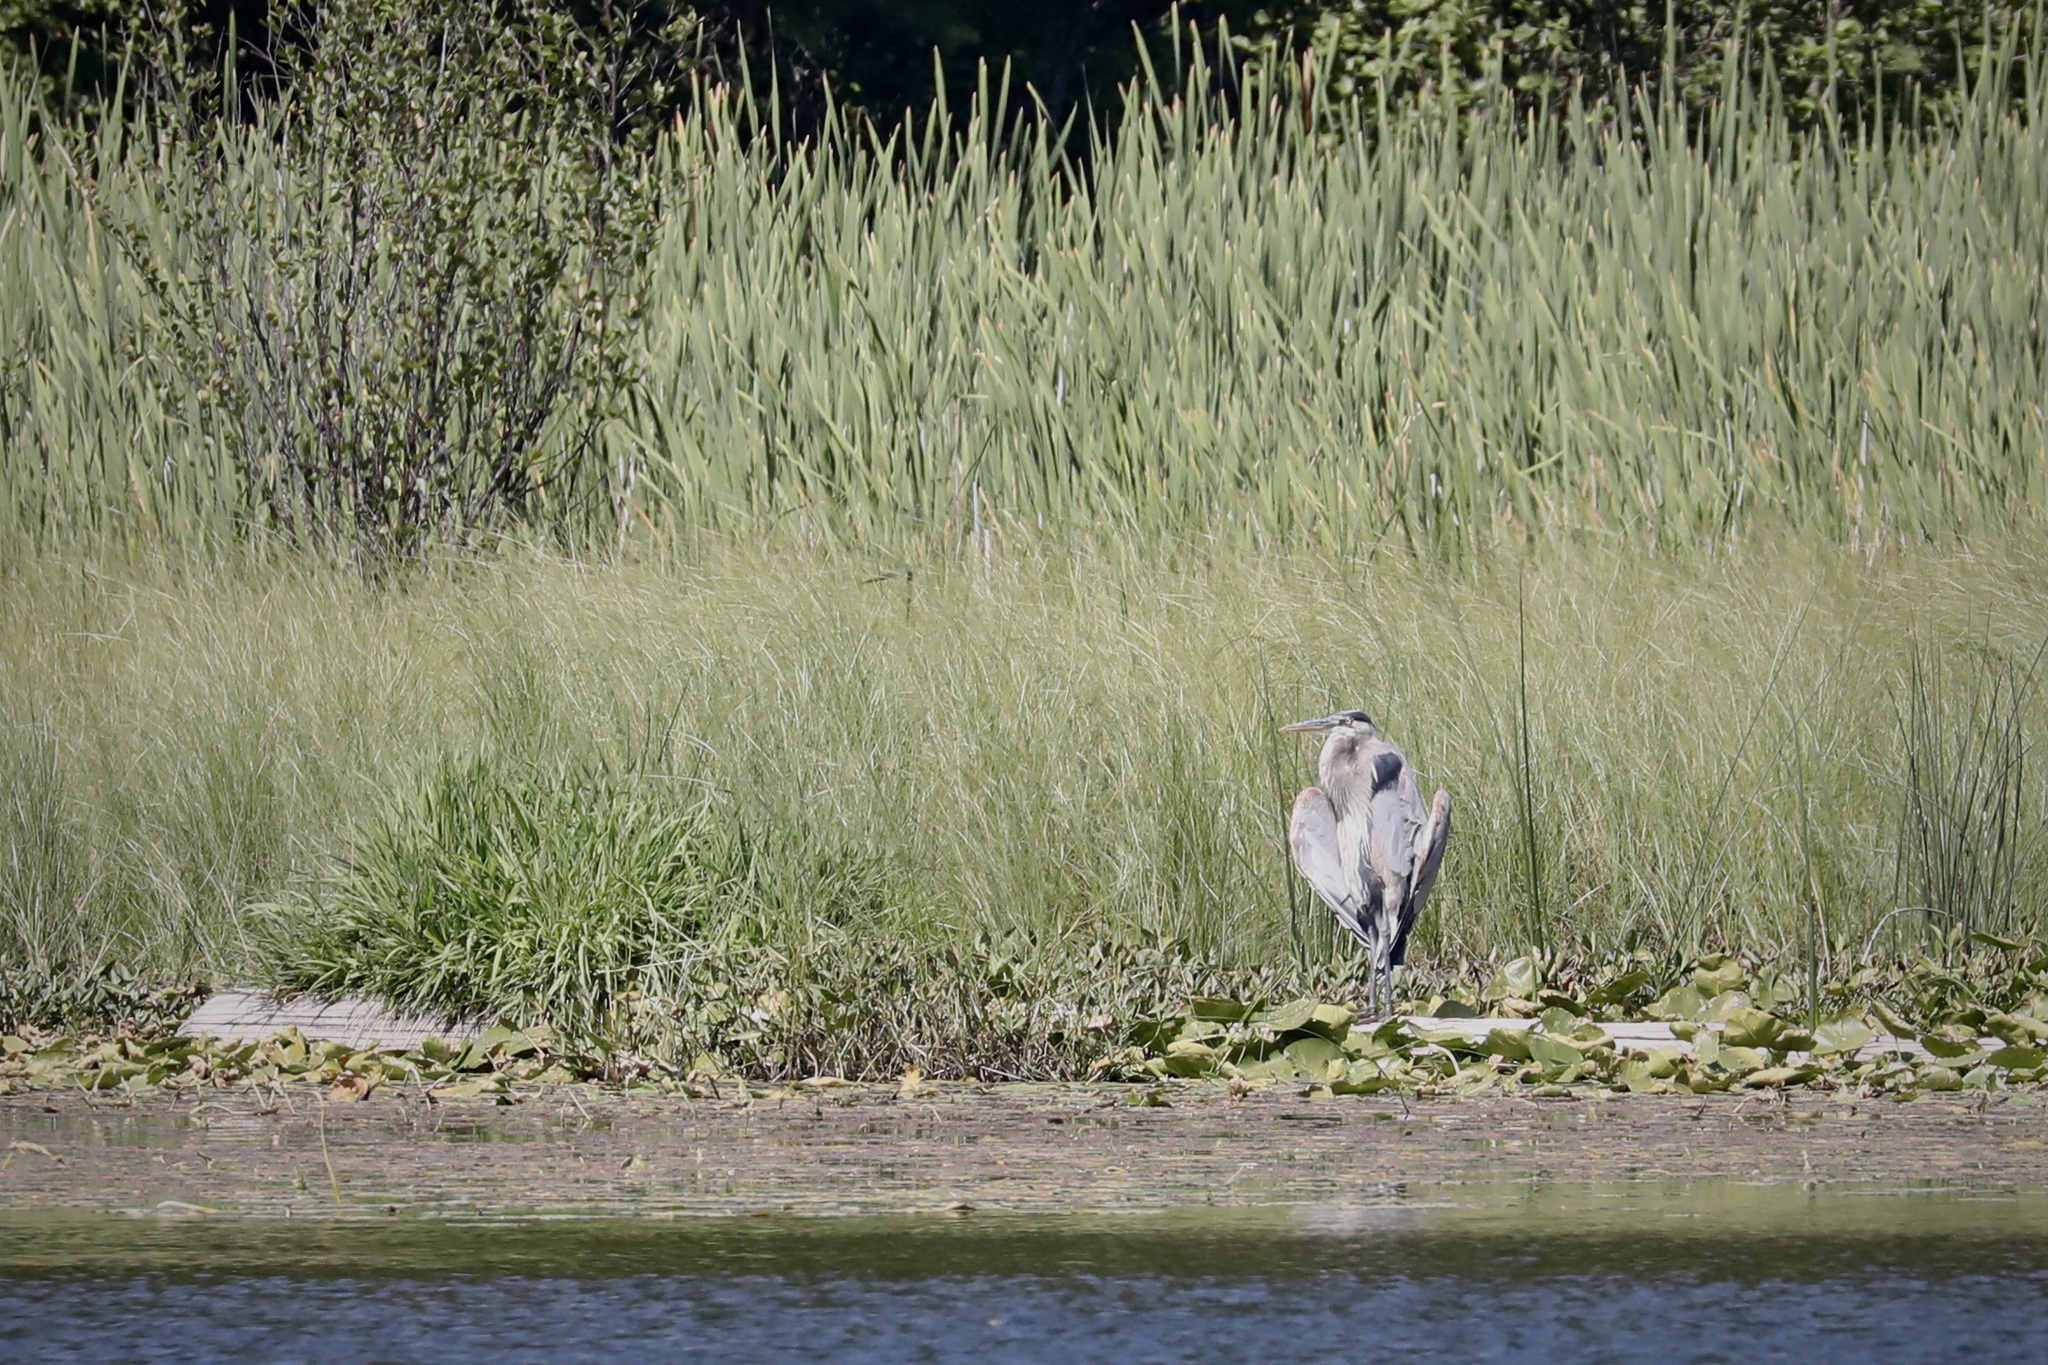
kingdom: Animalia
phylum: Chordata
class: Aves
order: Pelecaniformes
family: Ardeidae
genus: Ardea
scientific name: Ardea herodias
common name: Great blue heron
